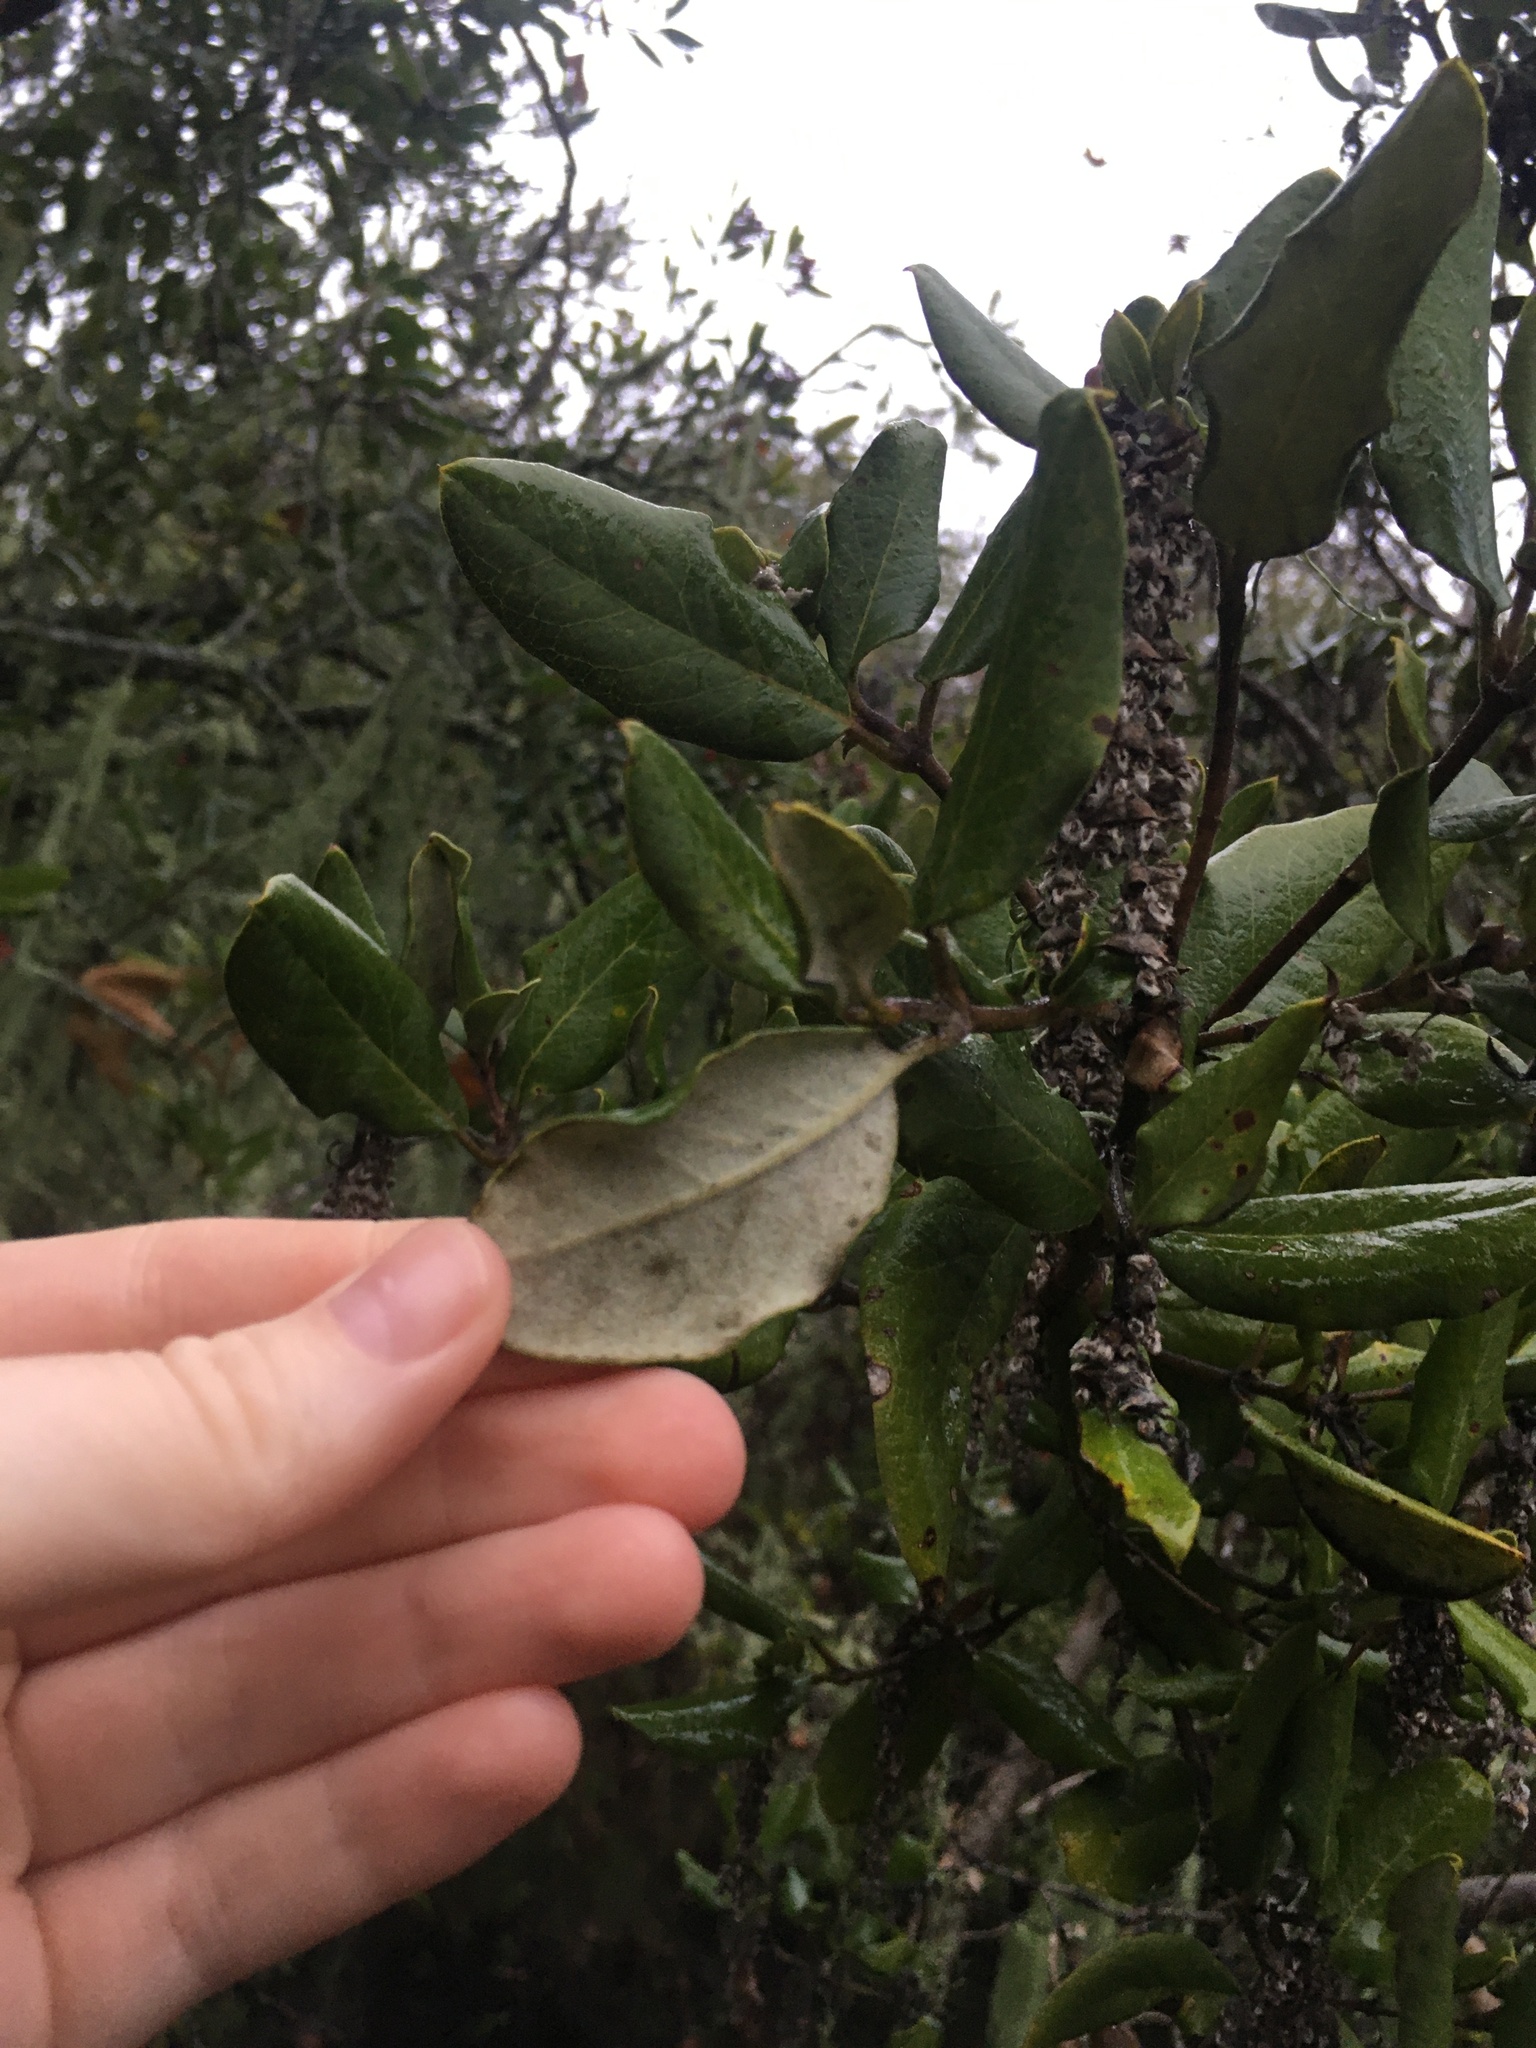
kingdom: Plantae
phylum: Tracheophyta
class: Magnoliopsida
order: Garryales
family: Garryaceae
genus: Garrya
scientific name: Garrya elliptica
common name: Silk-tassel
